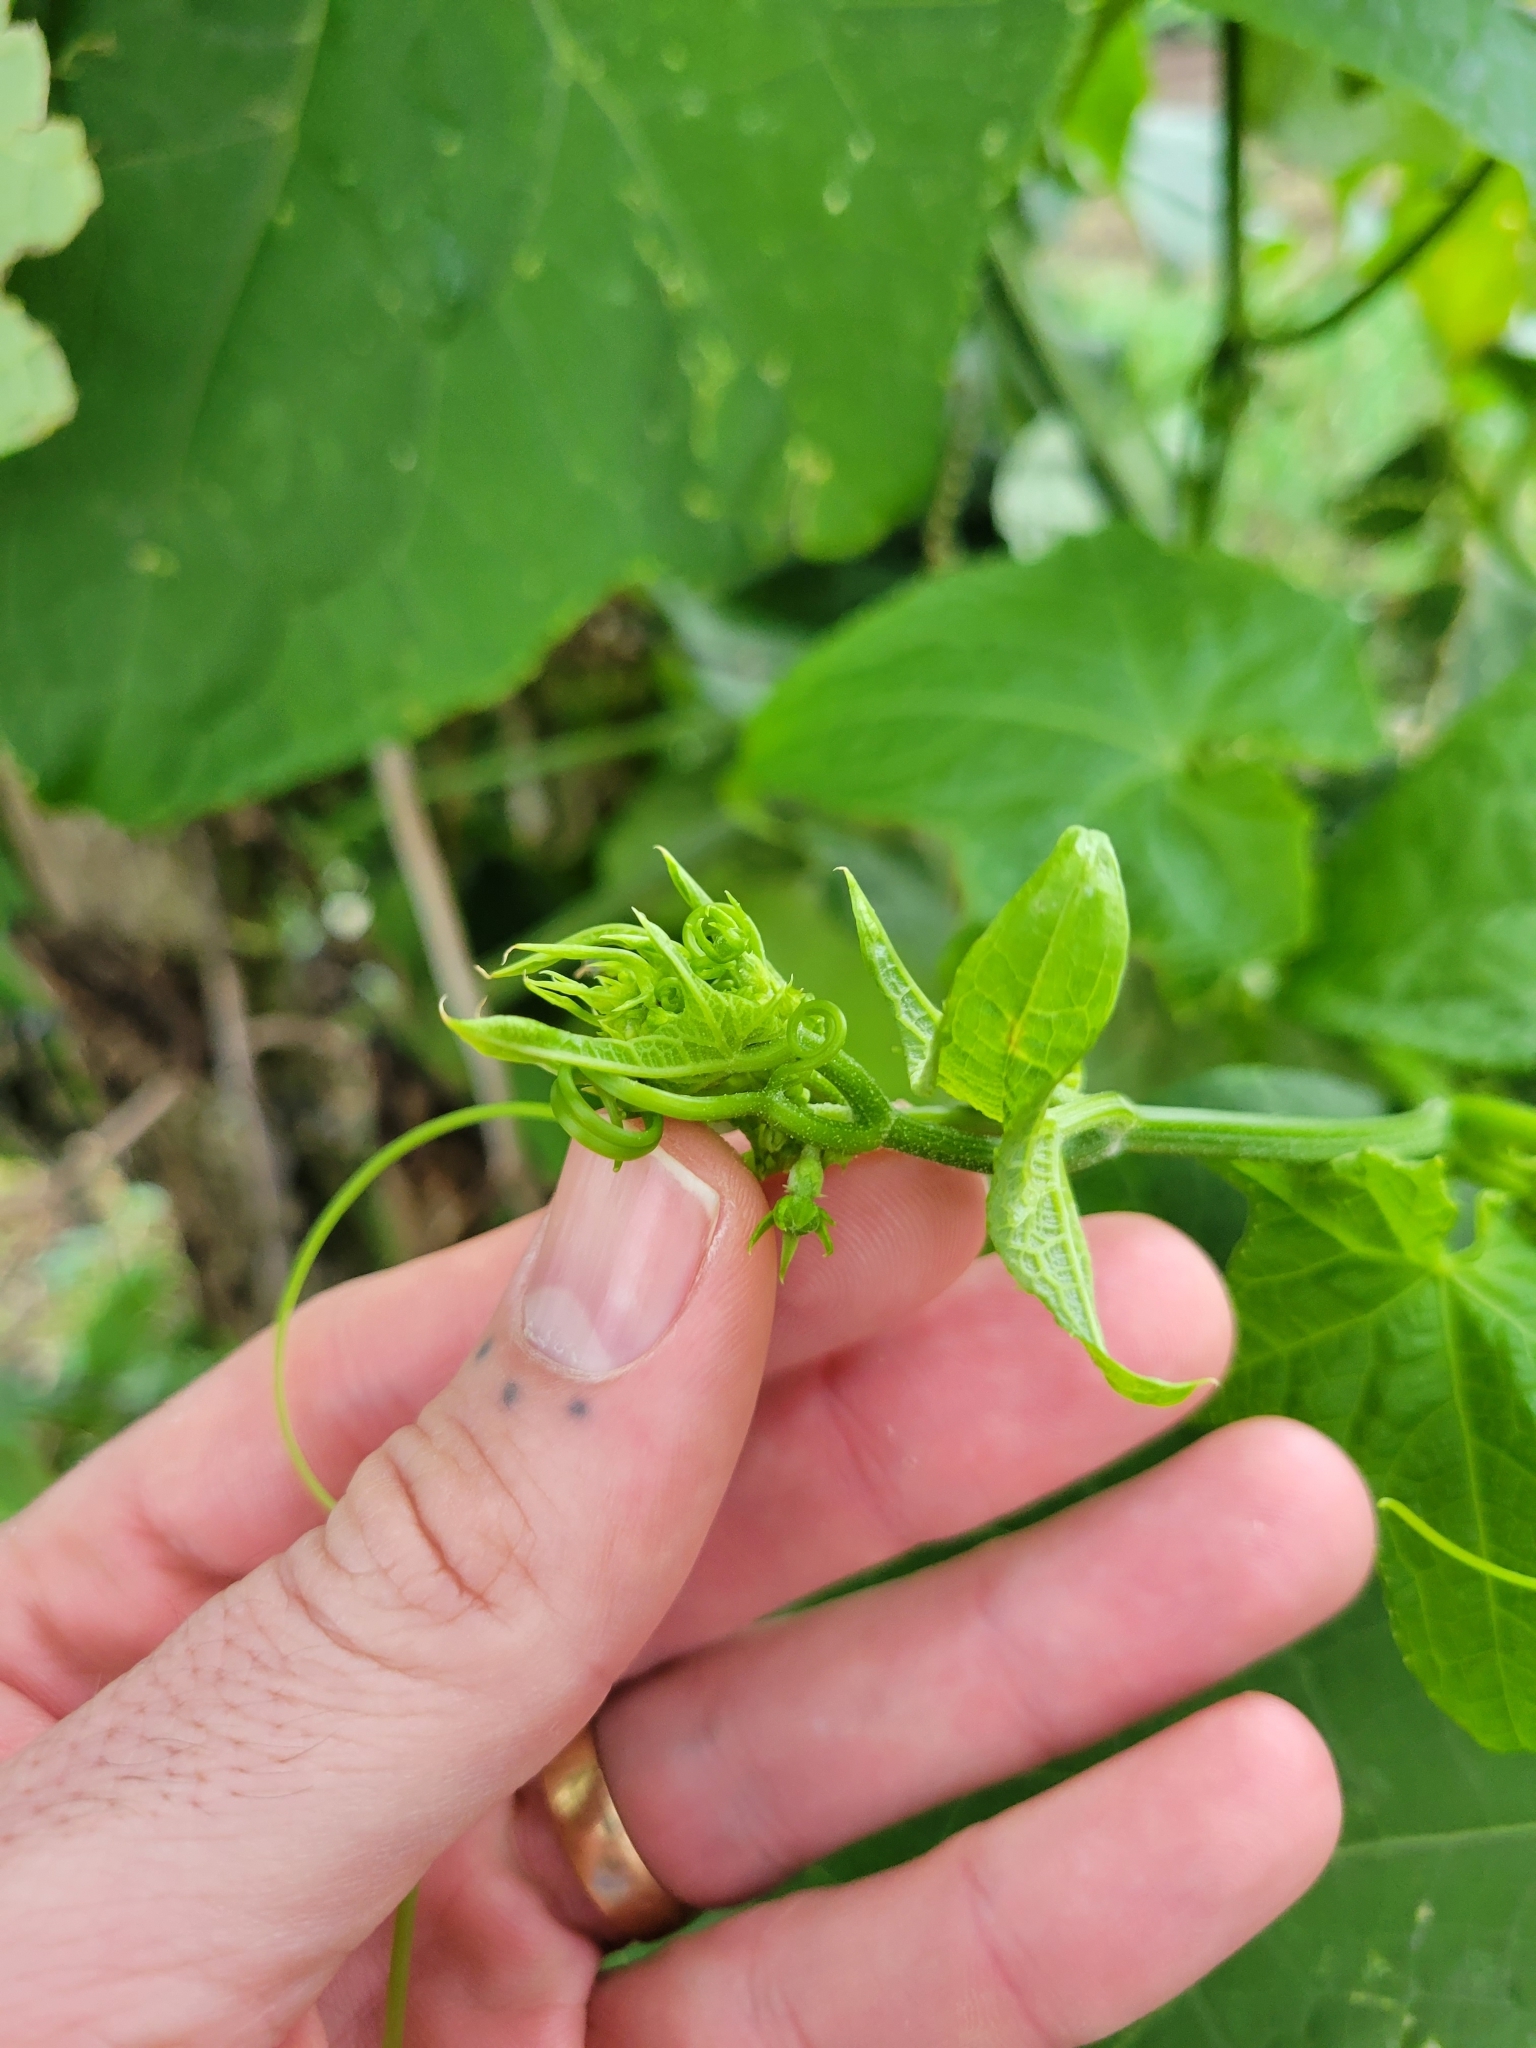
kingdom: Plantae
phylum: Tracheophyta
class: Magnoliopsida
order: Cucurbitales
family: Cucurbitaceae
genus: Sechium
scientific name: Sechium edule
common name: Chayote
